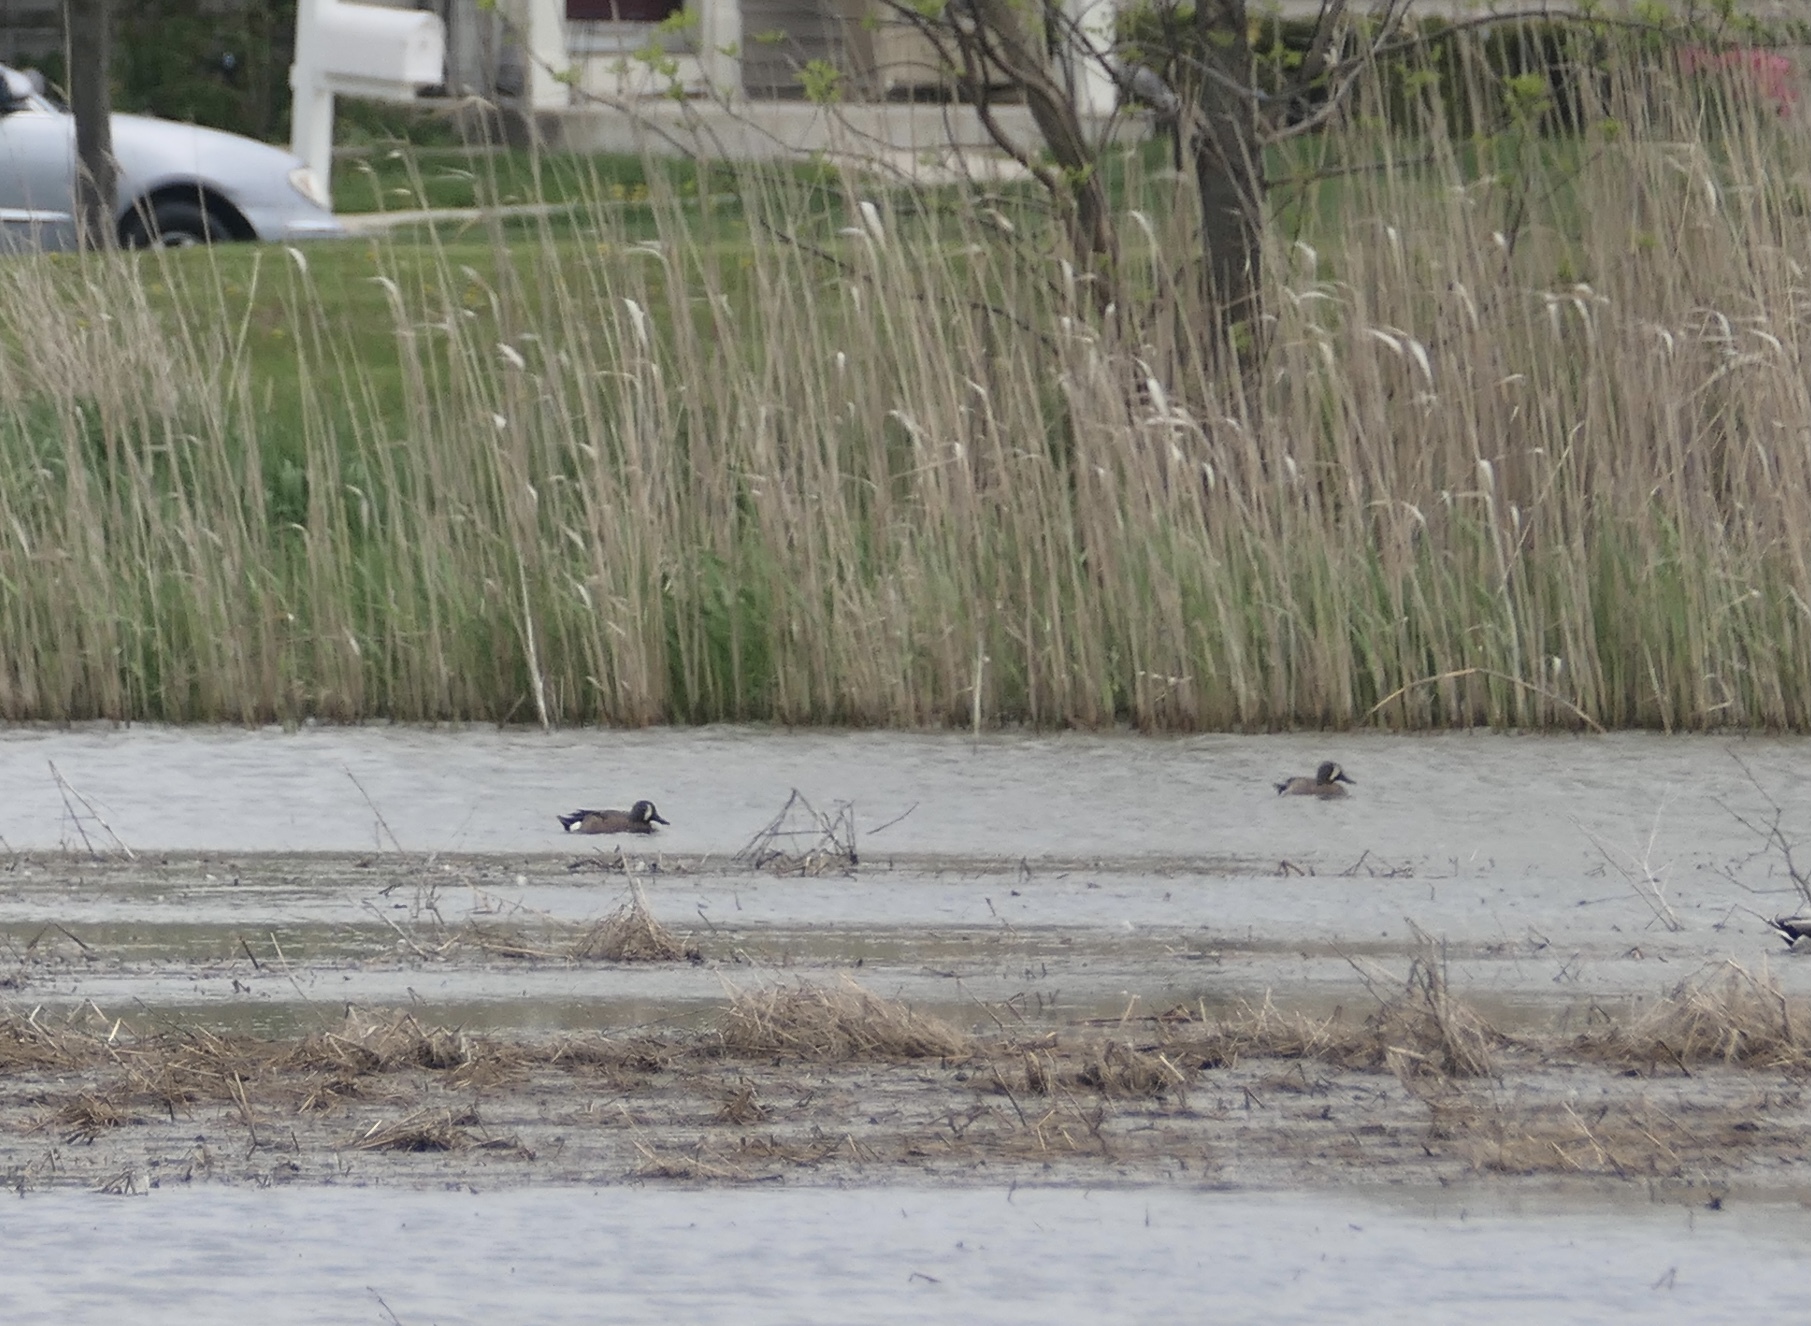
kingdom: Animalia
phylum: Chordata
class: Aves
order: Anseriformes
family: Anatidae
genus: Spatula
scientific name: Spatula discors
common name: Blue-winged teal
